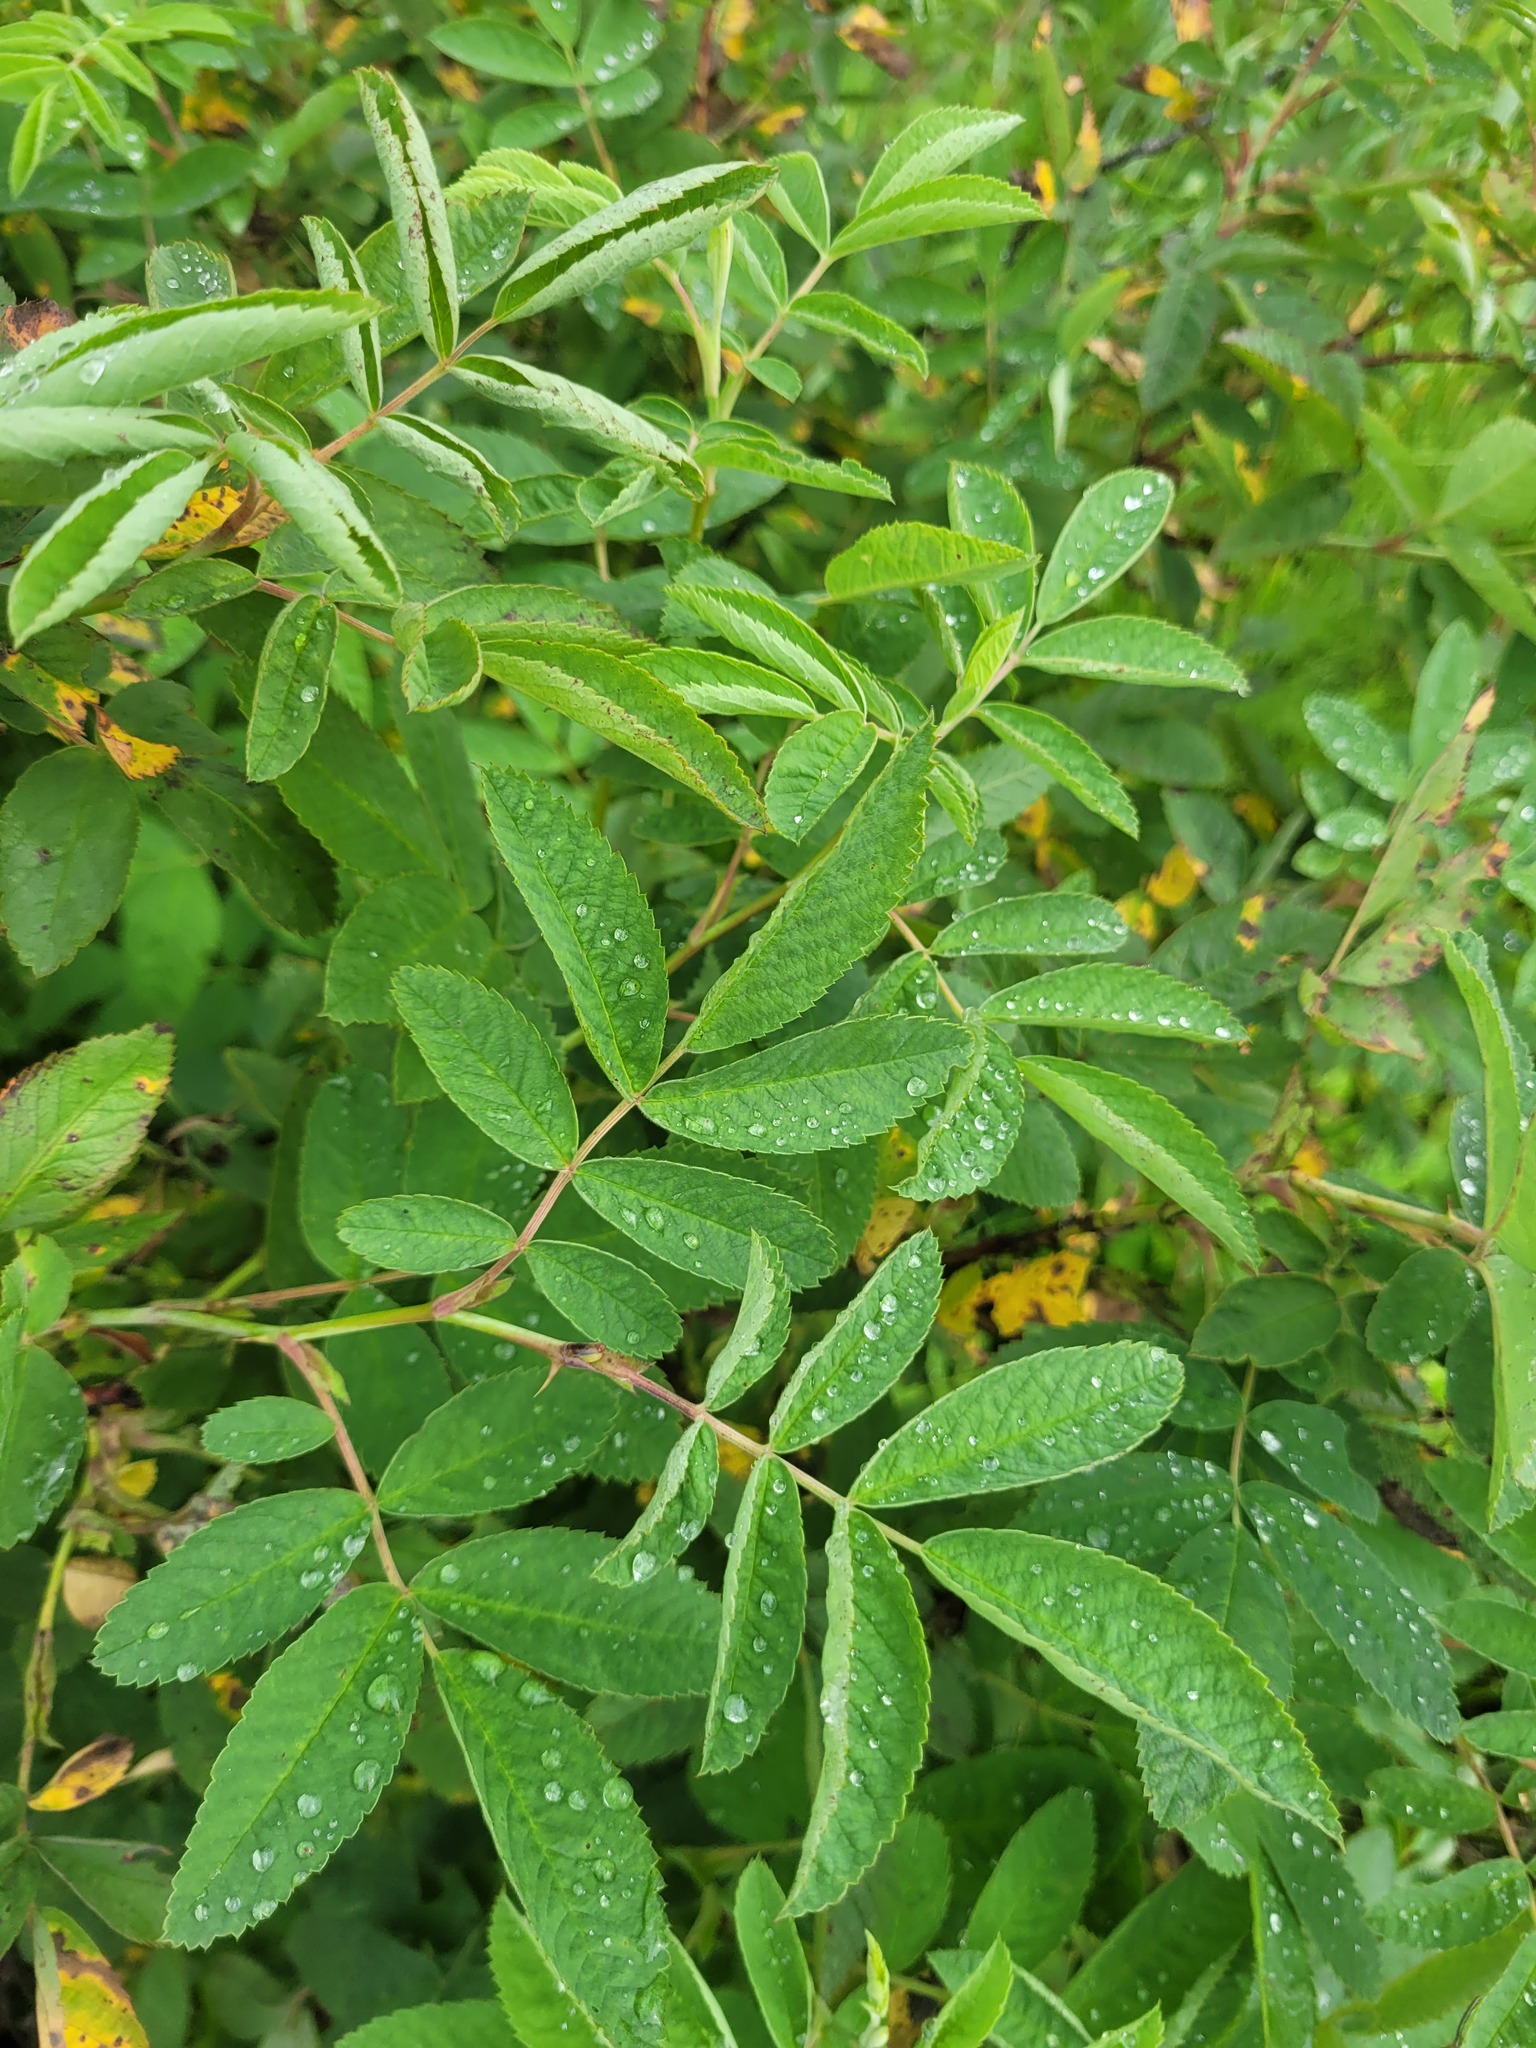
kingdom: Plantae
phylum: Tracheophyta
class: Magnoliopsida
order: Rosales
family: Rosaceae
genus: Rosa
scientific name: Rosa majalis
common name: Cinnamon rose
